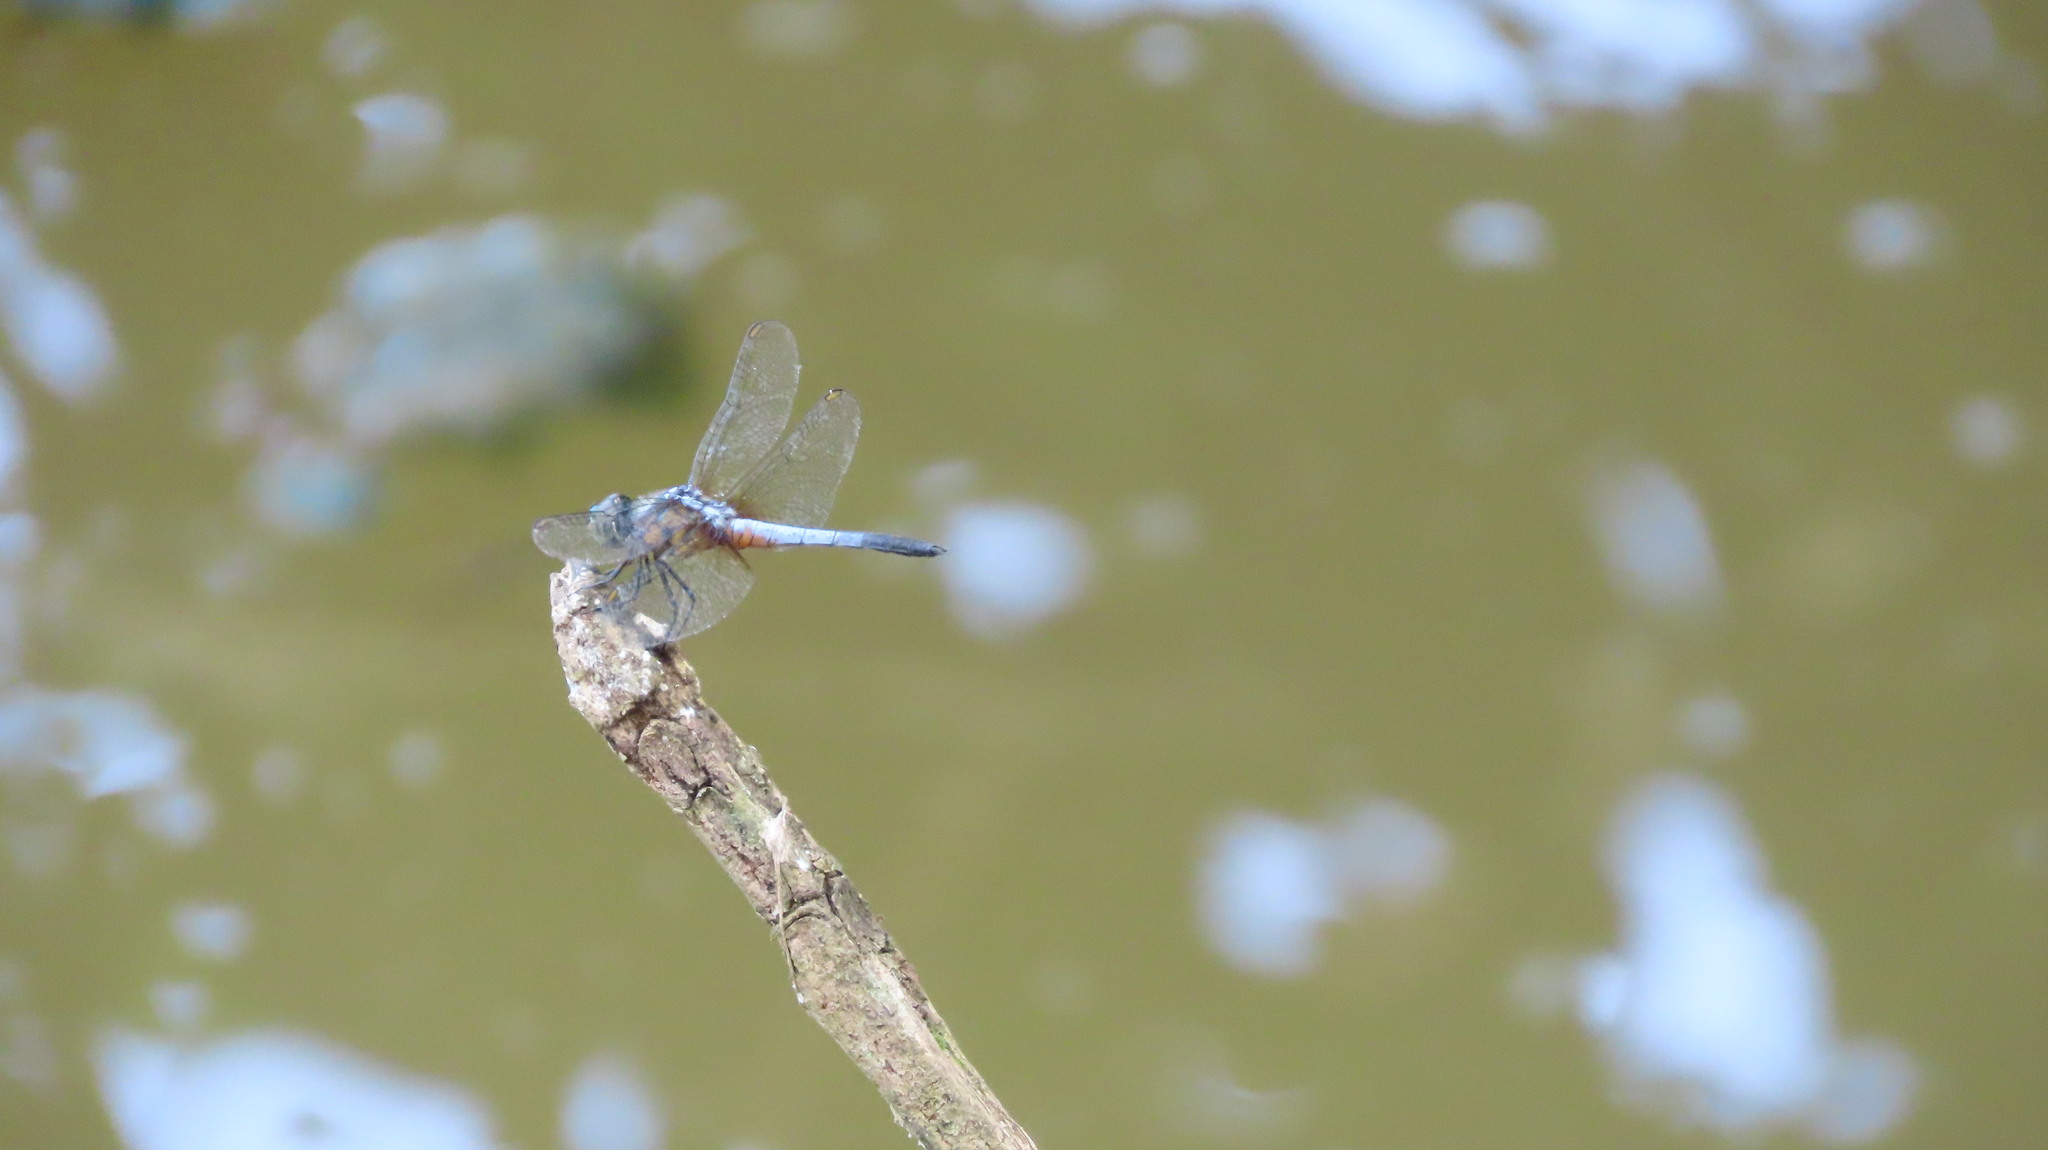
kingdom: Animalia
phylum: Arthropoda
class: Insecta
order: Odonata
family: Libellulidae
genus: Brachydiplax
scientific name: Brachydiplax chalybea
